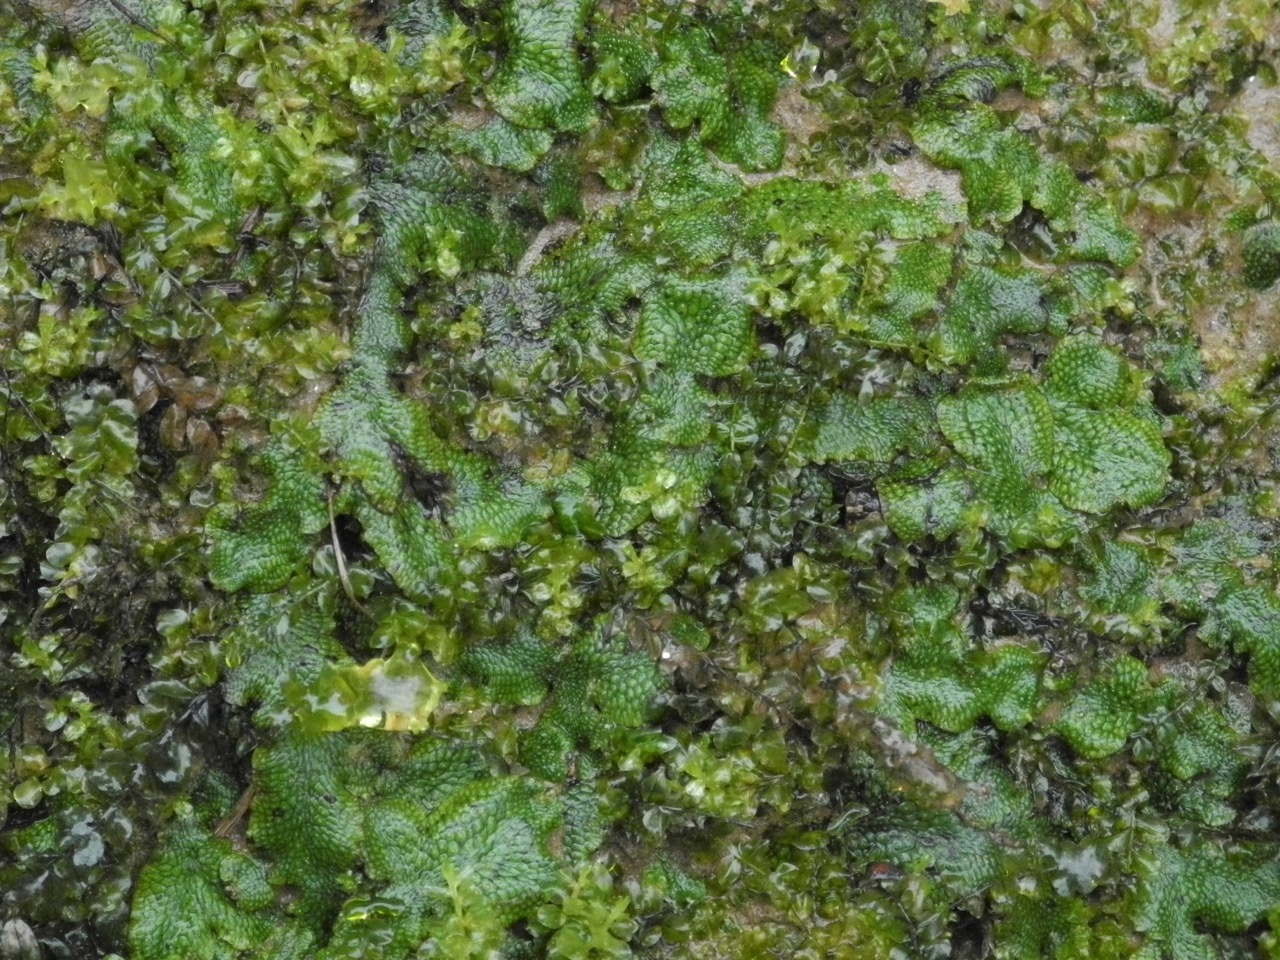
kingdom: Plantae
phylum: Marchantiophyta
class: Marchantiopsida
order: Marchantiales
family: Conocephalaceae
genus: Conocephalum
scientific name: Conocephalum salebrosum
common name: Cat-tongue liverwort
